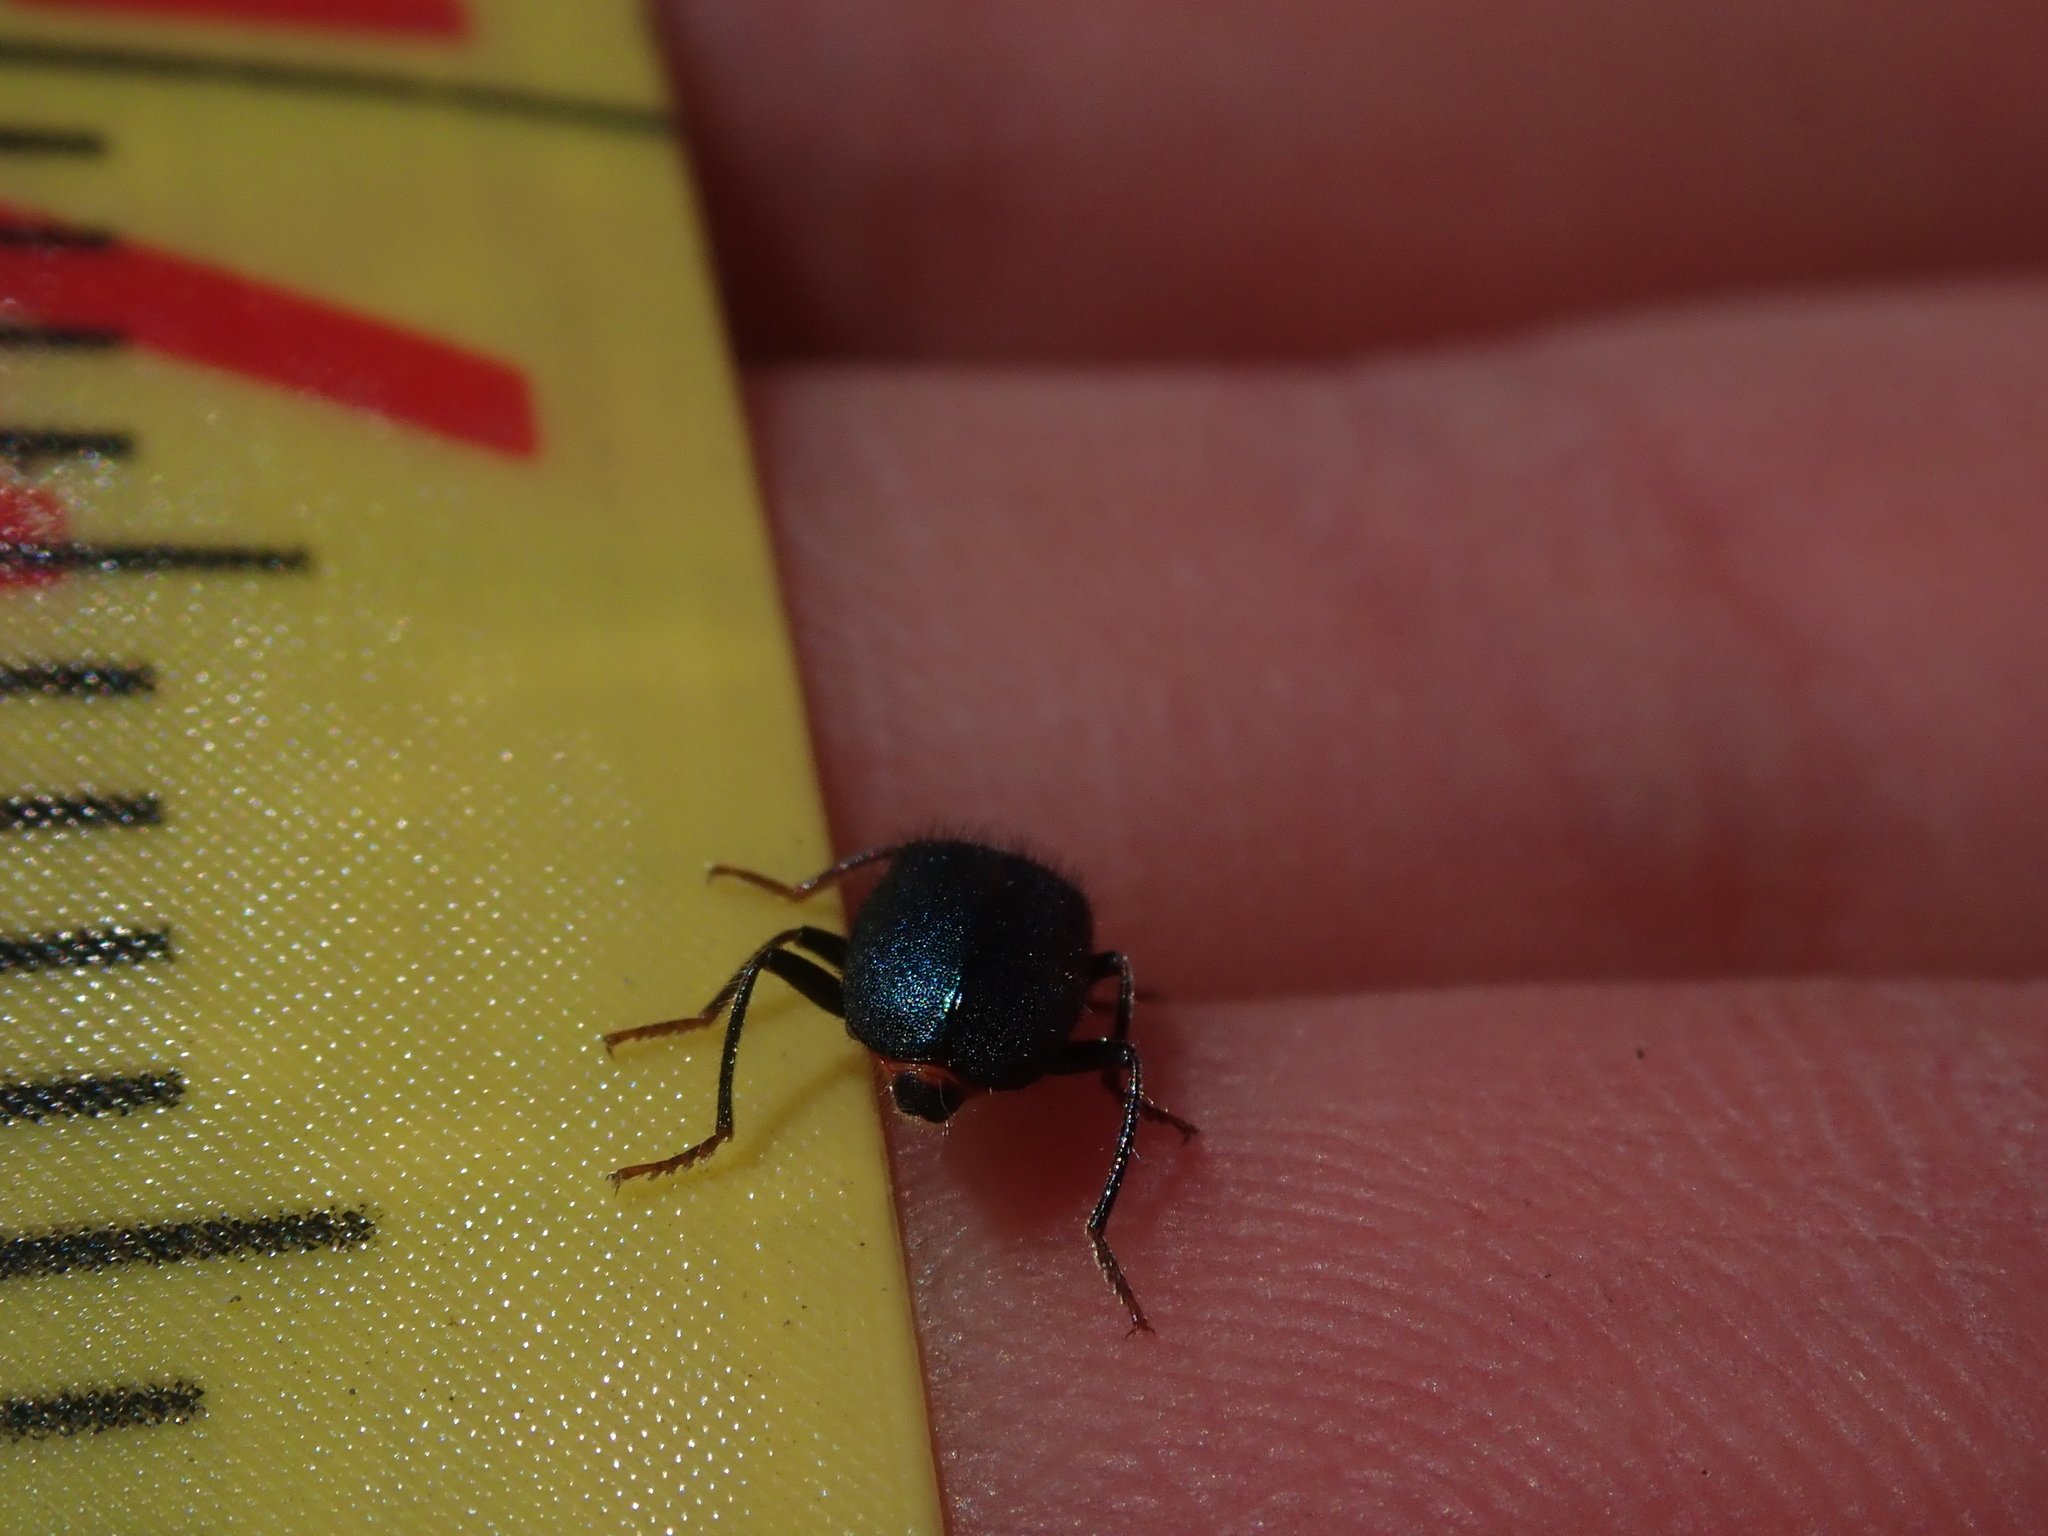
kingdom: Animalia
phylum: Arthropoda
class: Insecta
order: Coleoptera
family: Melyridae
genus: Collops
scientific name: Collops bipunctatus
